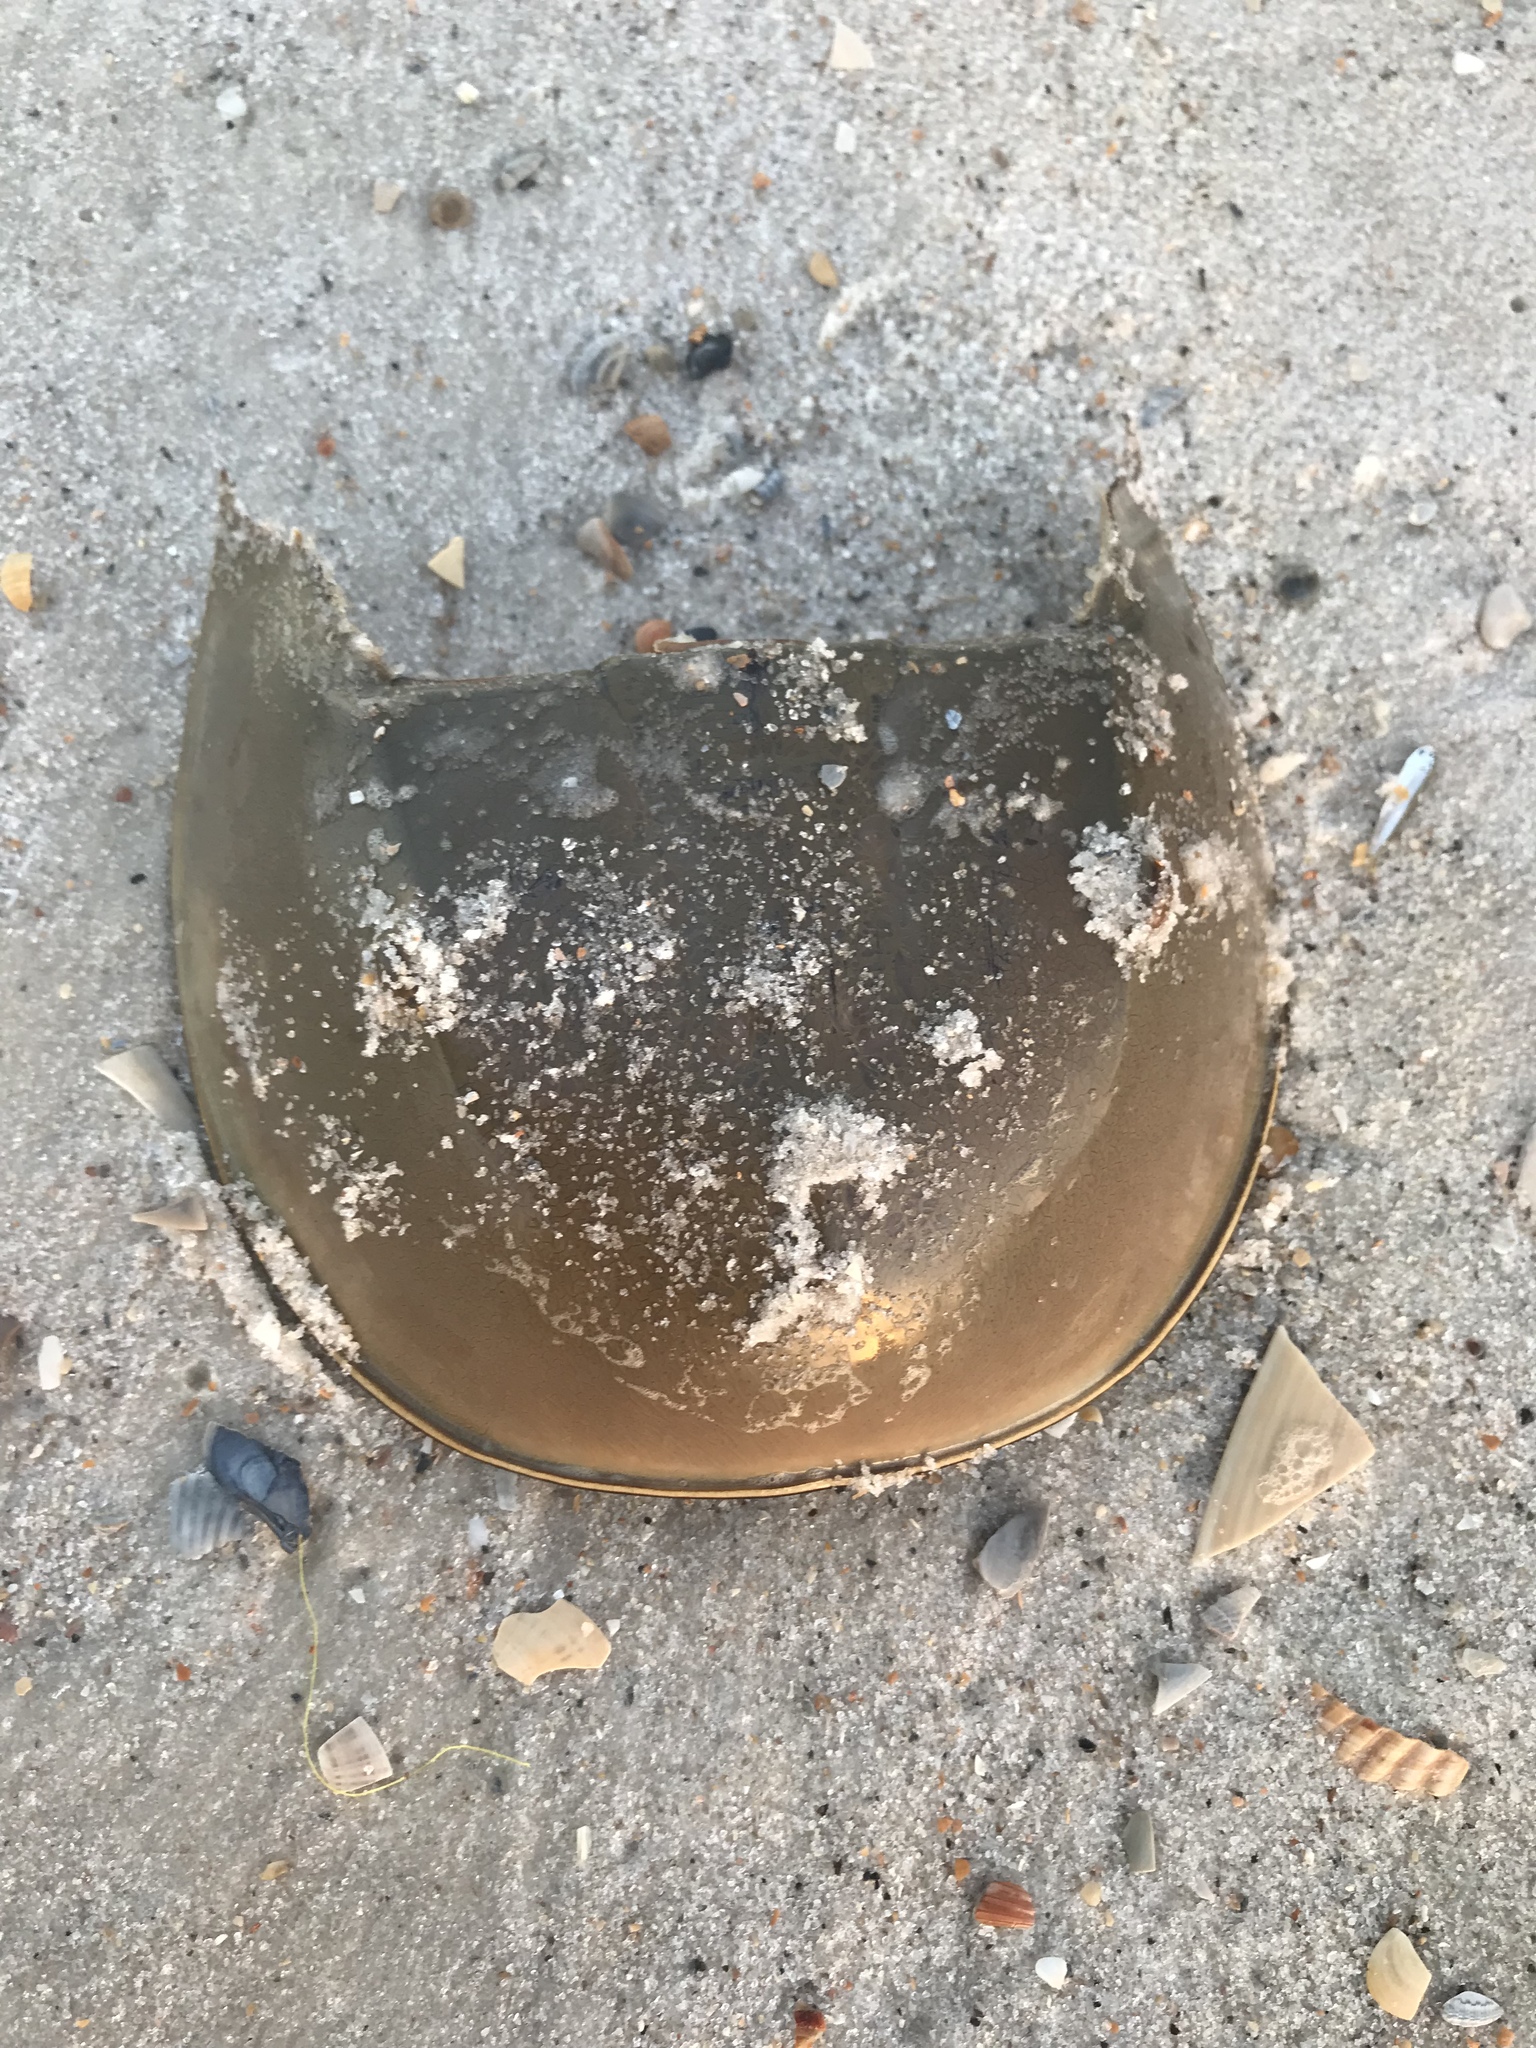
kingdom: Animalia
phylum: Arthropoda
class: Merostomata
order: Xiphosurida
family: Limulidae
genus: Limulus
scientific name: Limulus polyphemus
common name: Horseshoe crab
